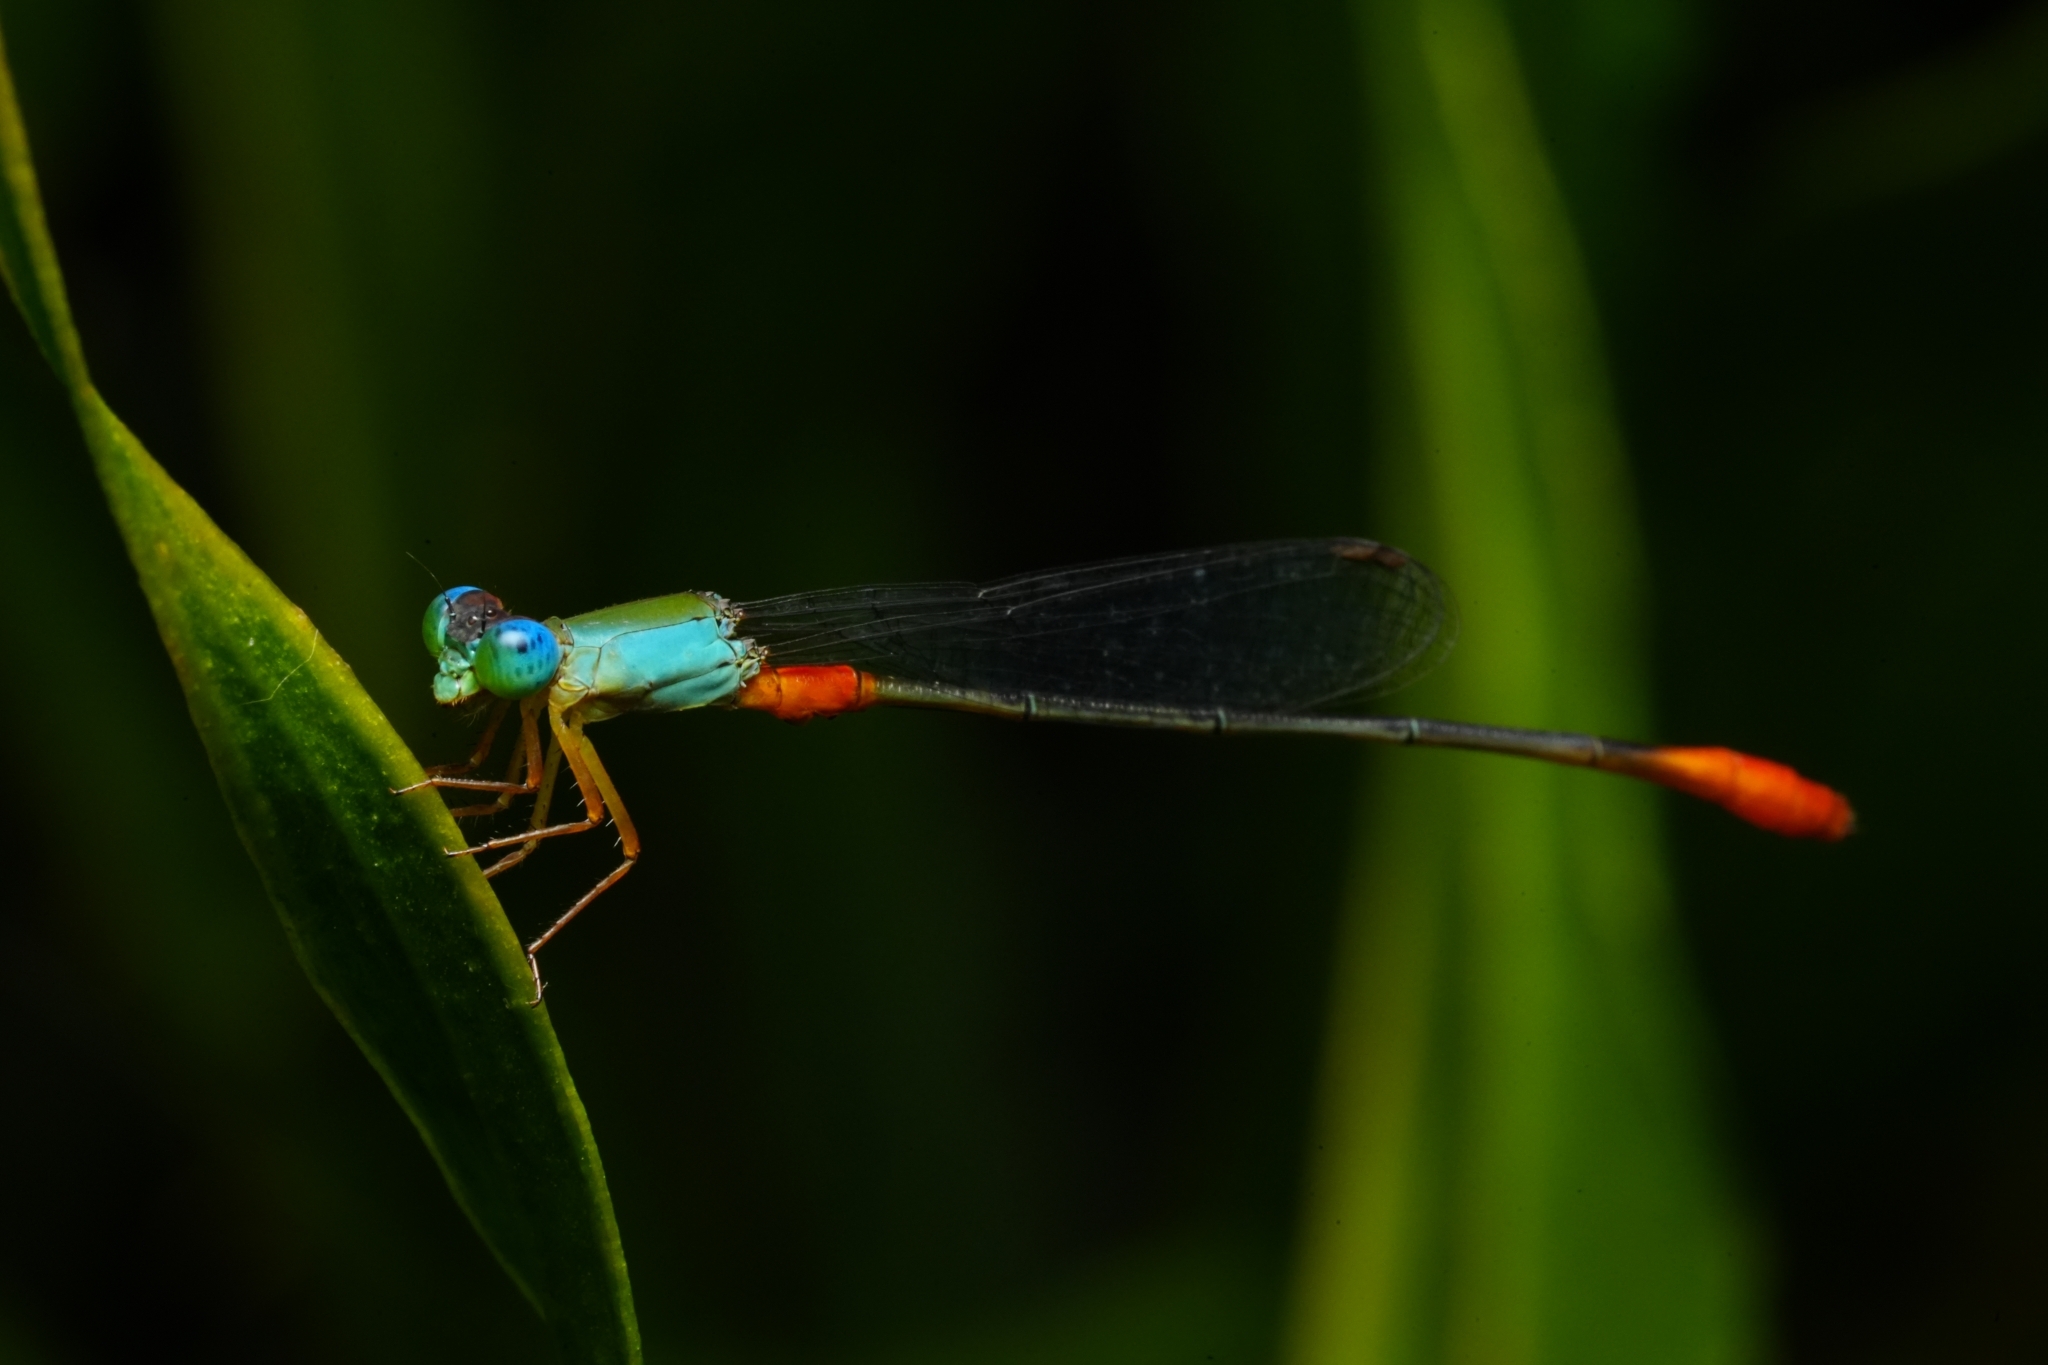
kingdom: Animalia
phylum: Arthropoda
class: Insecta
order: Odonata
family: Coenagrionidae
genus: Ceriagrion
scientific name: Ceriagrion cerinorubellum
